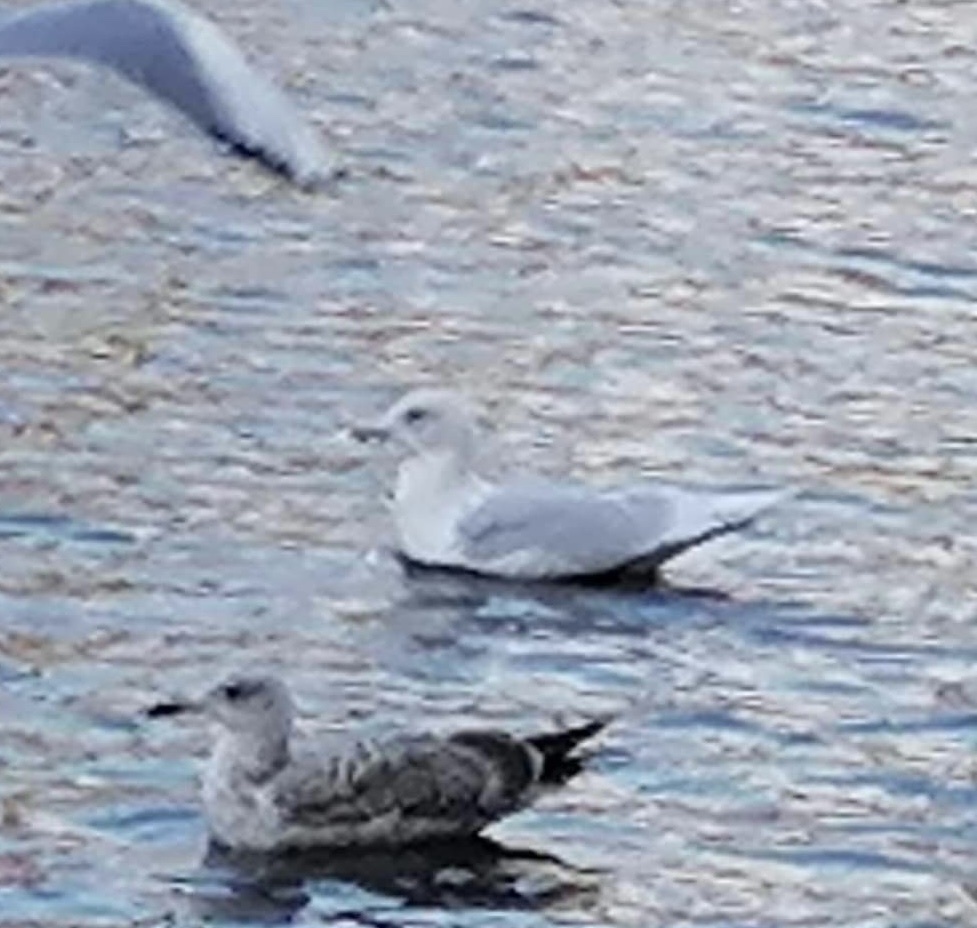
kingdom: Animalia
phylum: Chordata
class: Aves
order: Charadriiformes
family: Laridae
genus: Larus
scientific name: Larus glaucoides
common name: Iceland gull
